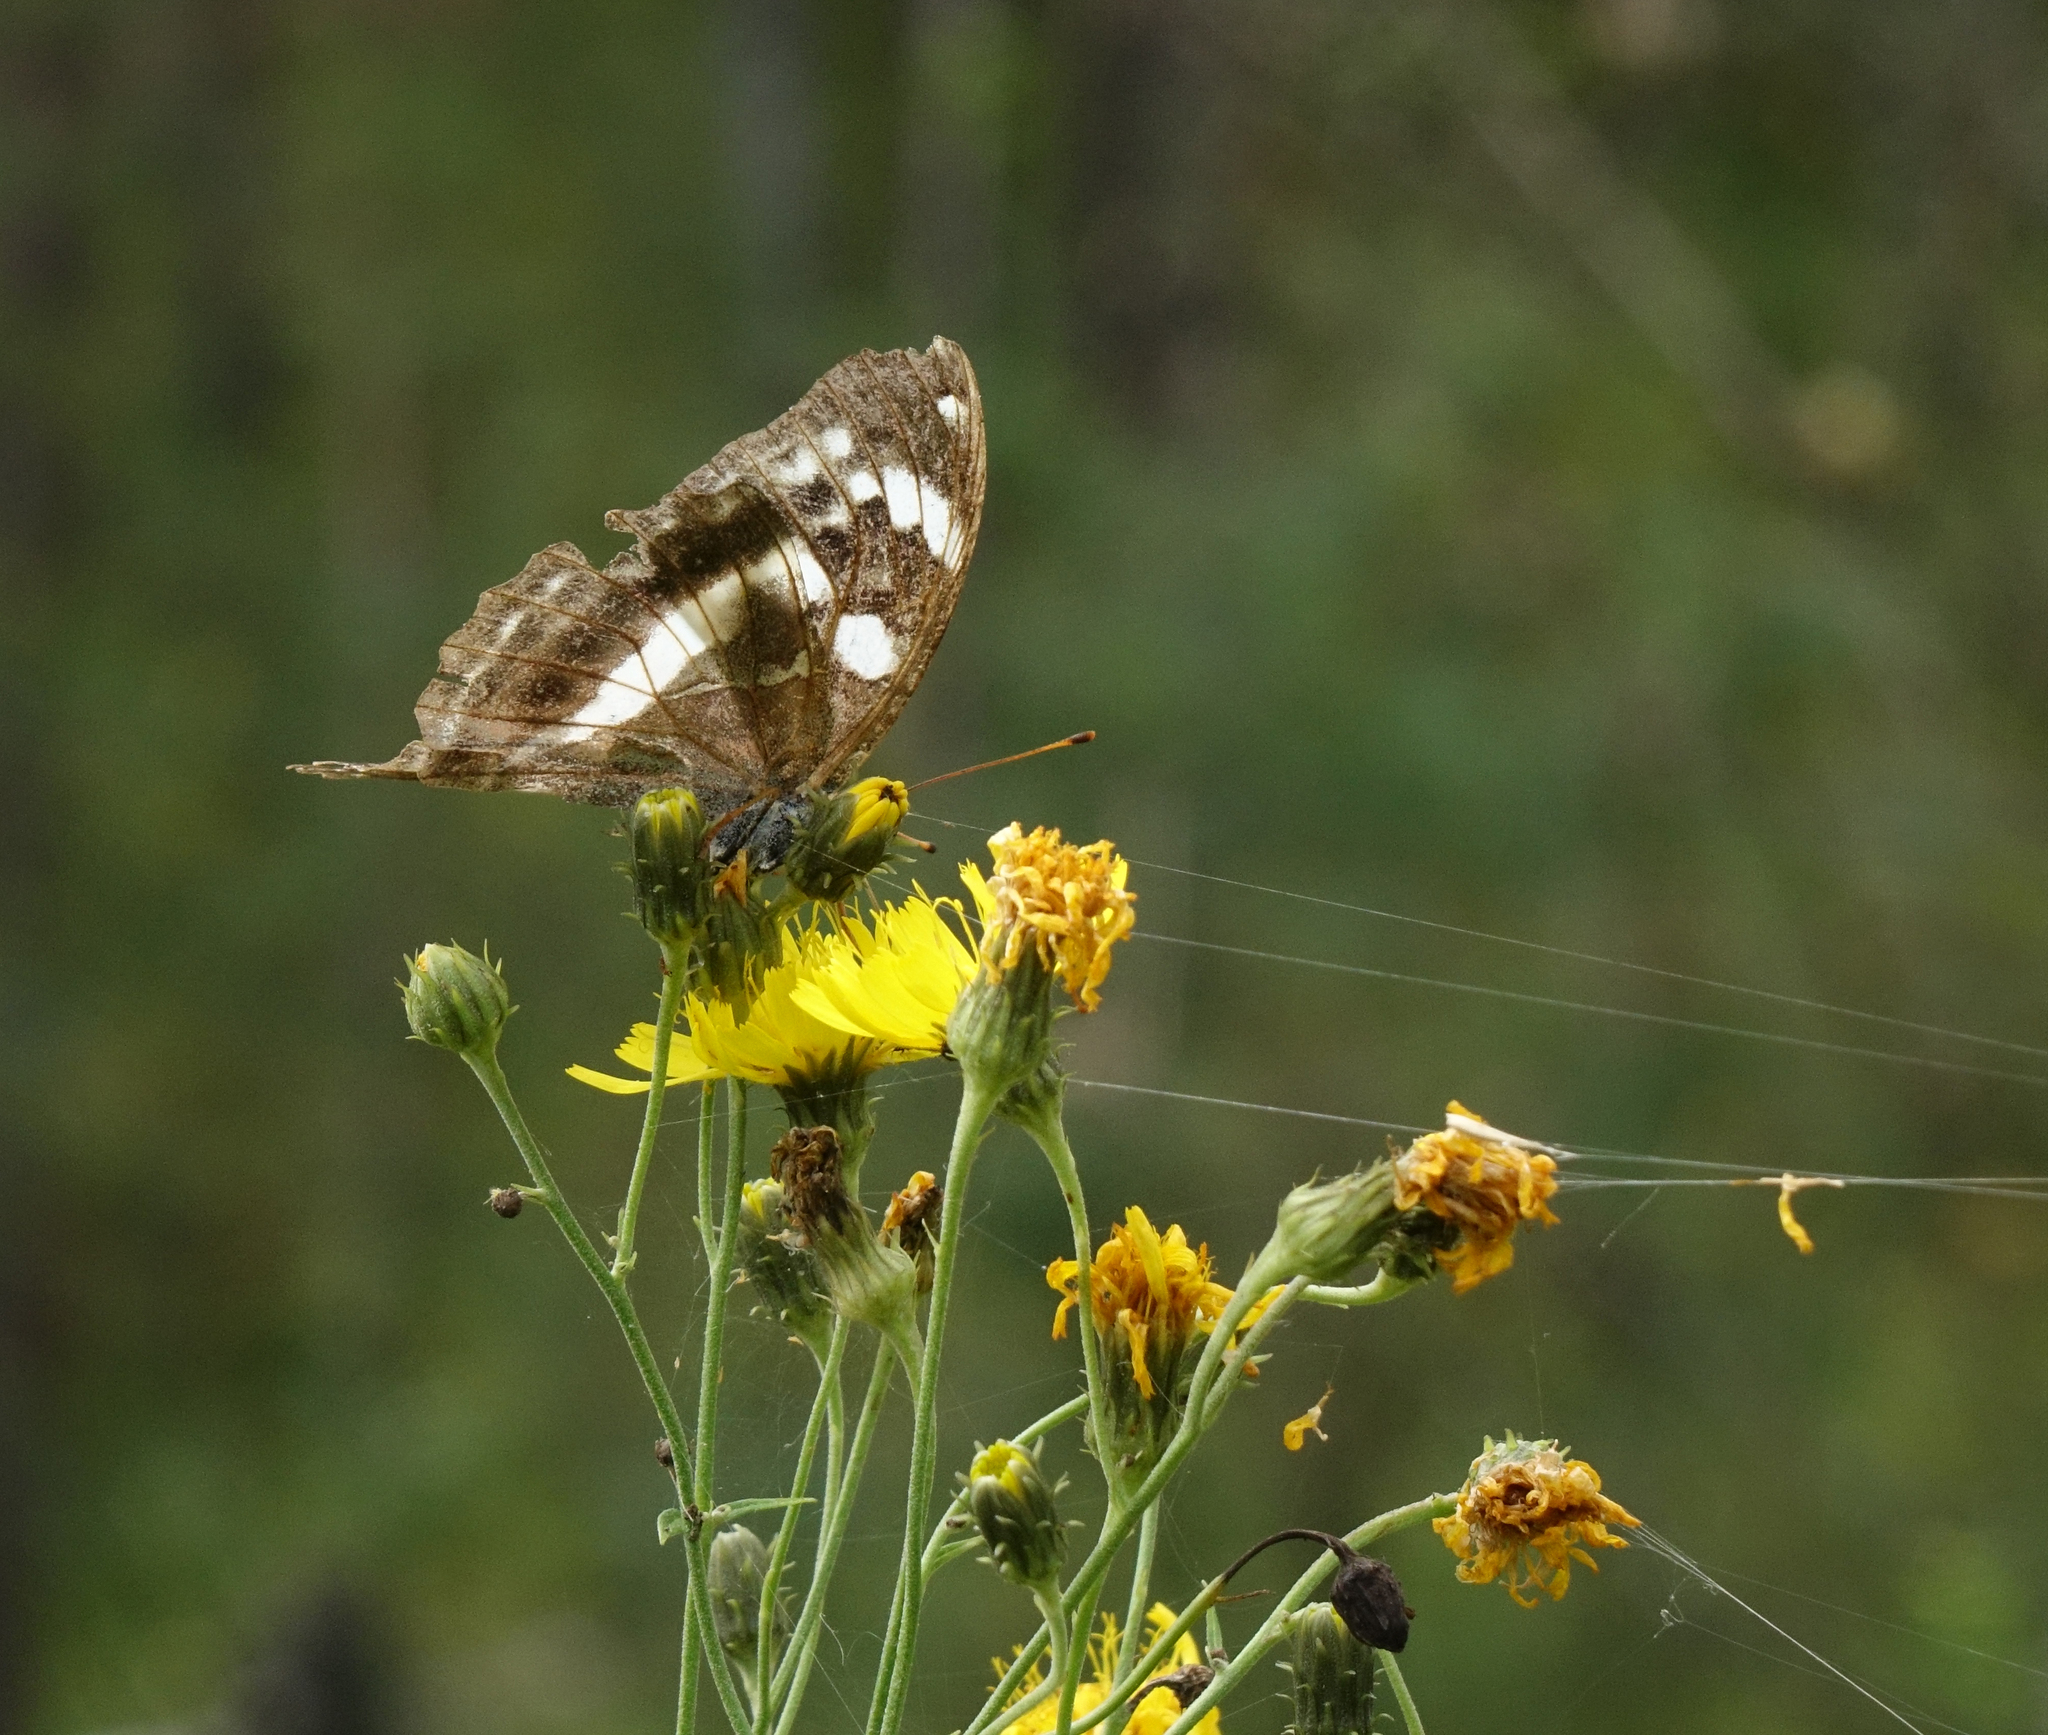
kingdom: Plantae
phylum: Tracheophyta
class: Magnoliopsida
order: Asterales
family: Asteraceae
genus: Hieracium
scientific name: Hieracium umbellatum
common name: Northern hawkweed
